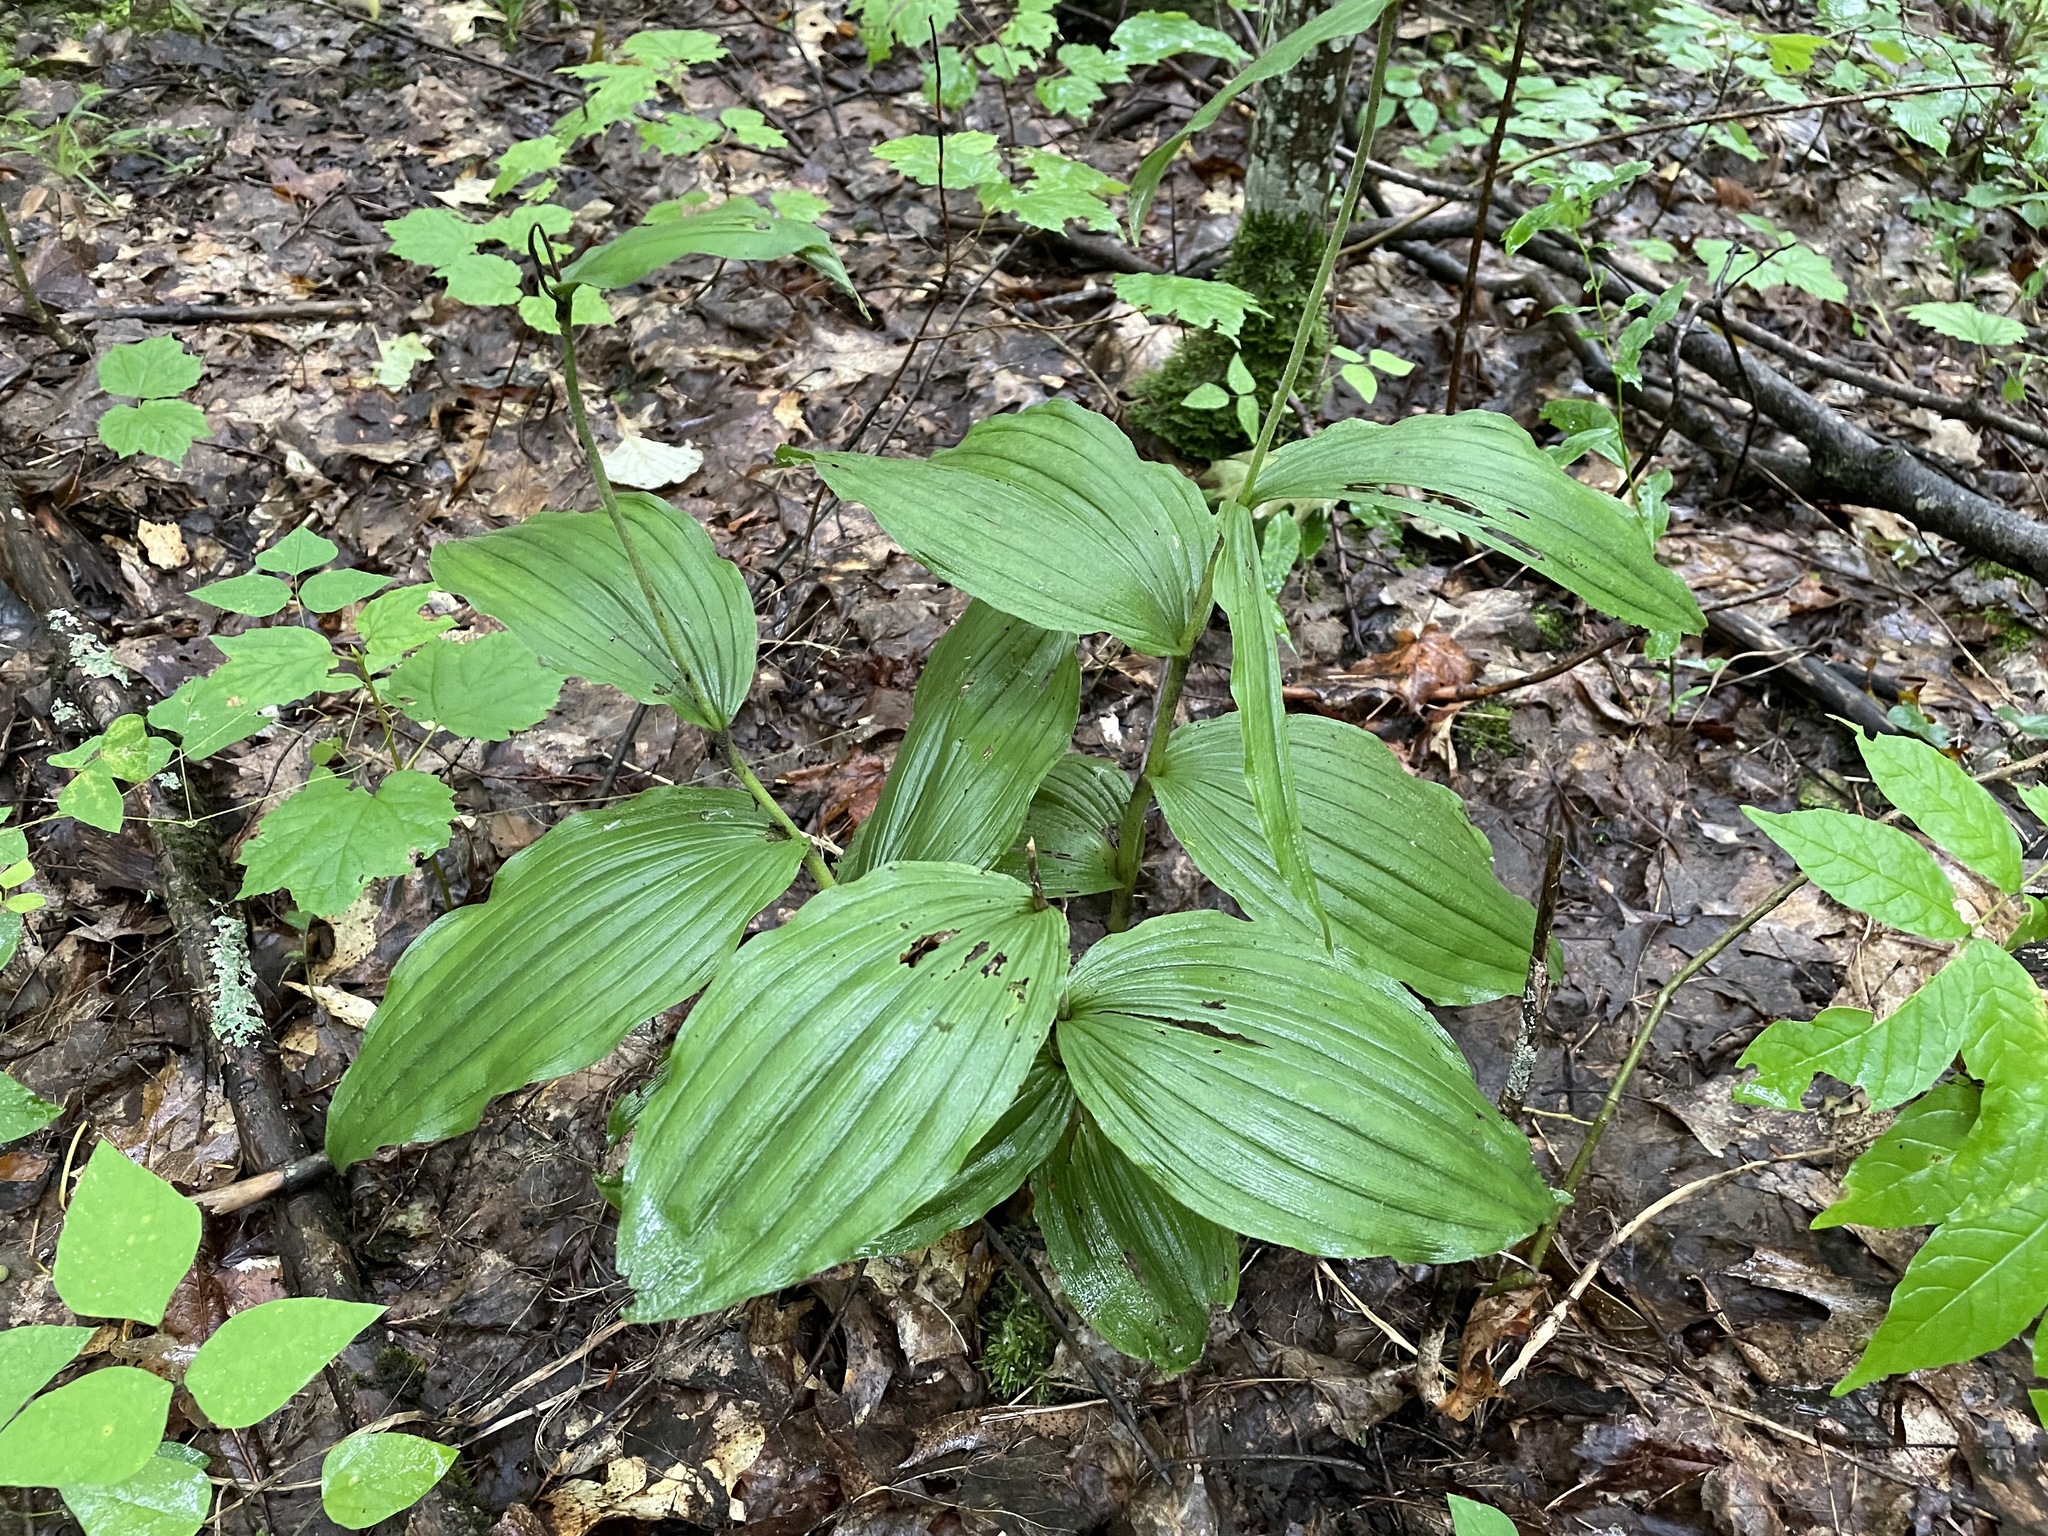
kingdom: Plantae
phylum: Tracheophyta
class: Liliopsida
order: Asparagales
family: Orchidaceae
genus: Cypripedium
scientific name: Cypripedium parviflorum
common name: American yellow lady's-slipper
